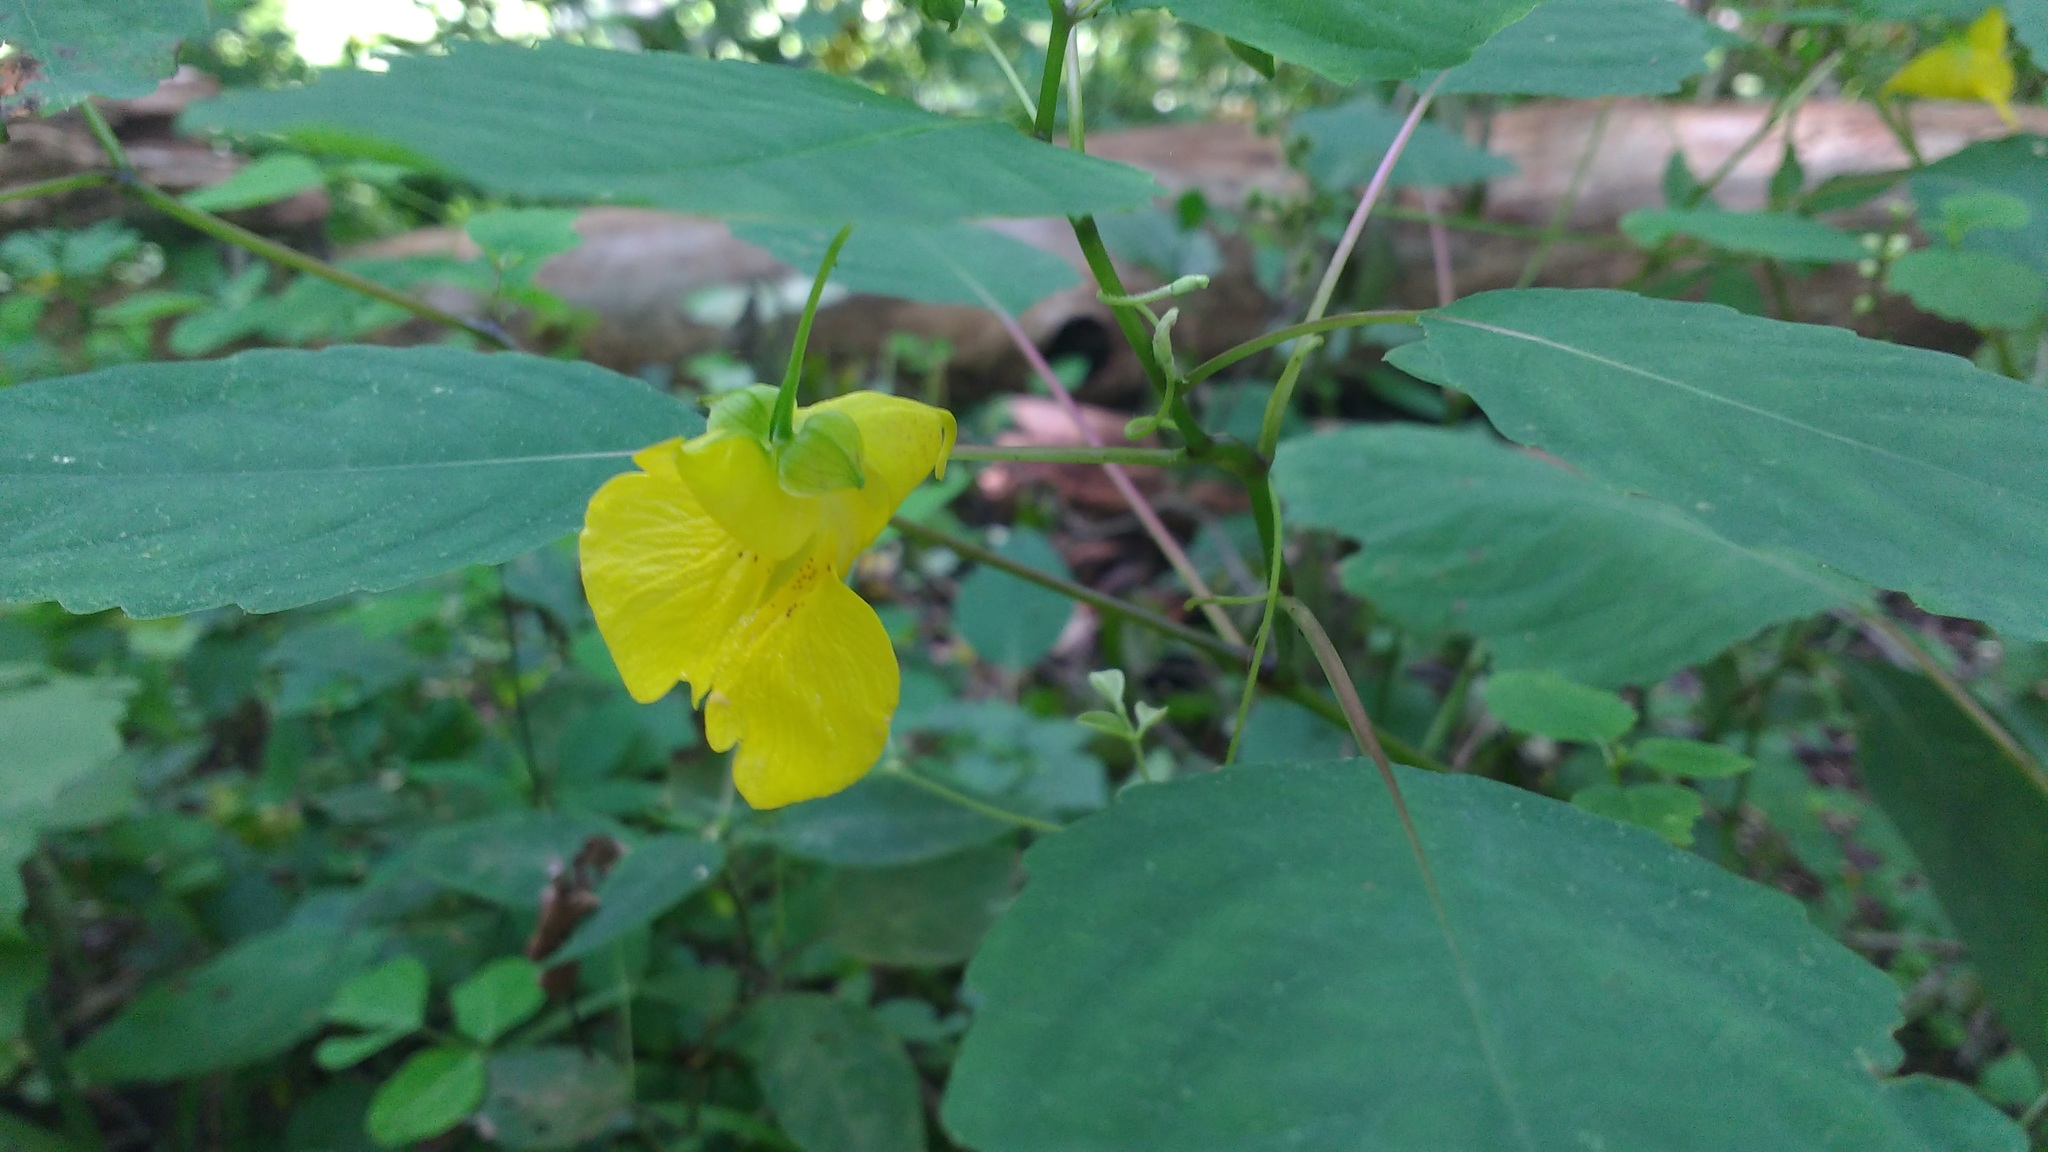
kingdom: Plantae
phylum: Tracheophyta
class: Magnoliopsida
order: Ericales
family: Balsaminaceae
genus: Impatiens
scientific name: Impatiens pallida
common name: Pale snapweed
